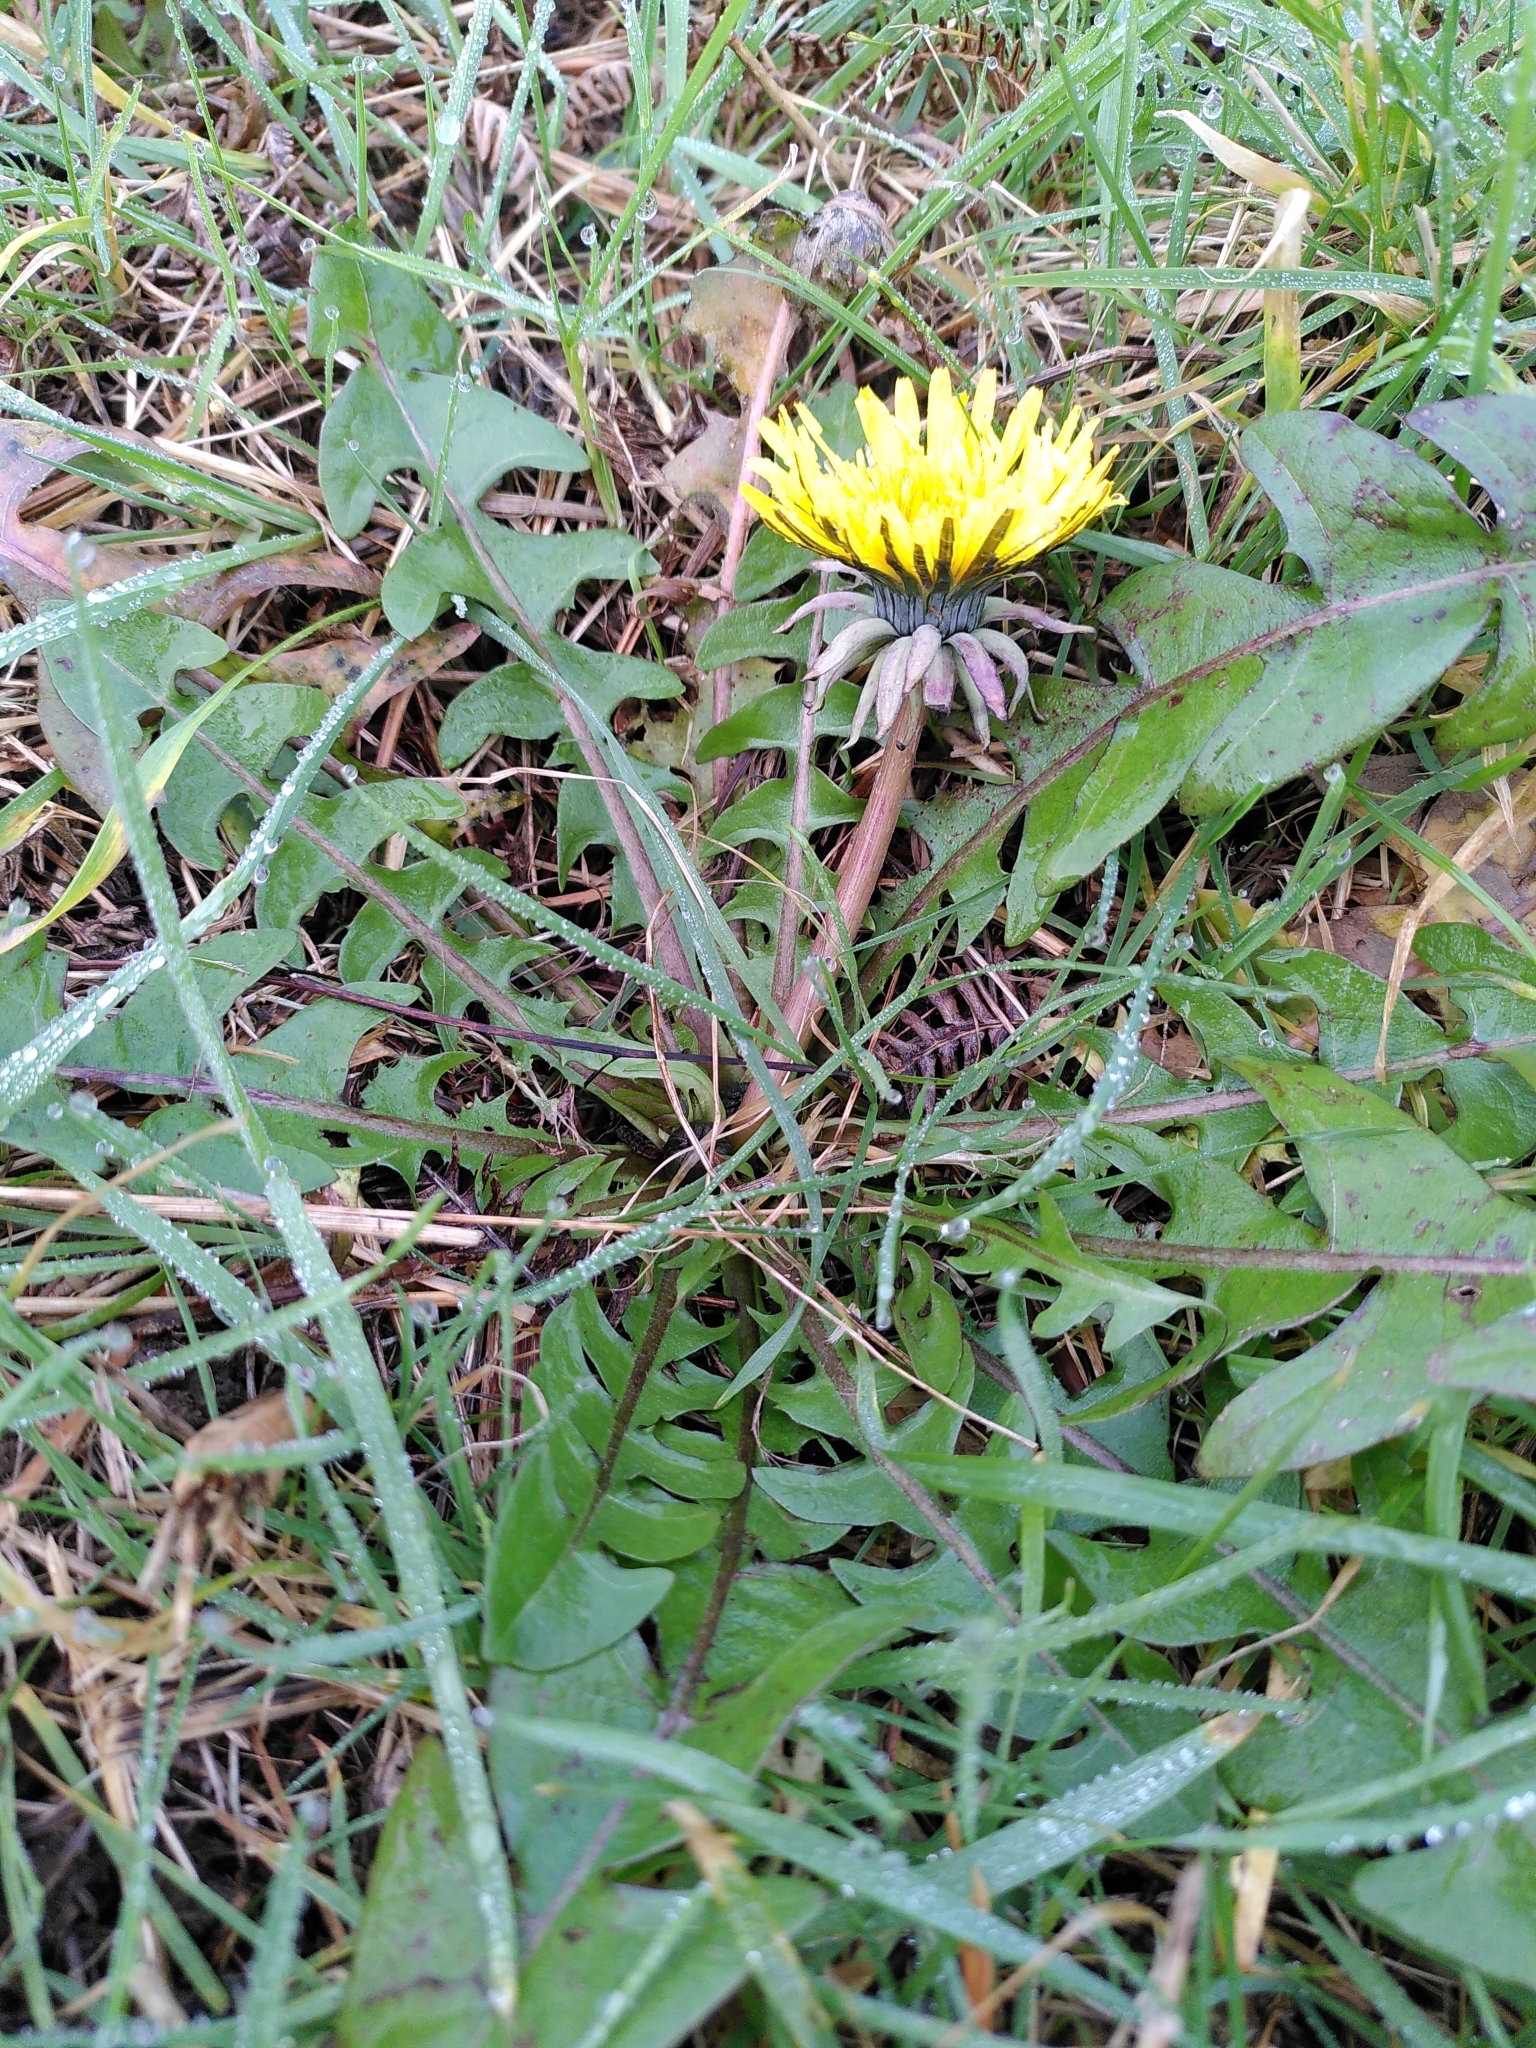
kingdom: Plantae
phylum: Tracheophyta
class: Magnoliopsida
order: Asterales
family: Asteraceae
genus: Taraxacum
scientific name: Taraxacum officinale
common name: Common dandelion
